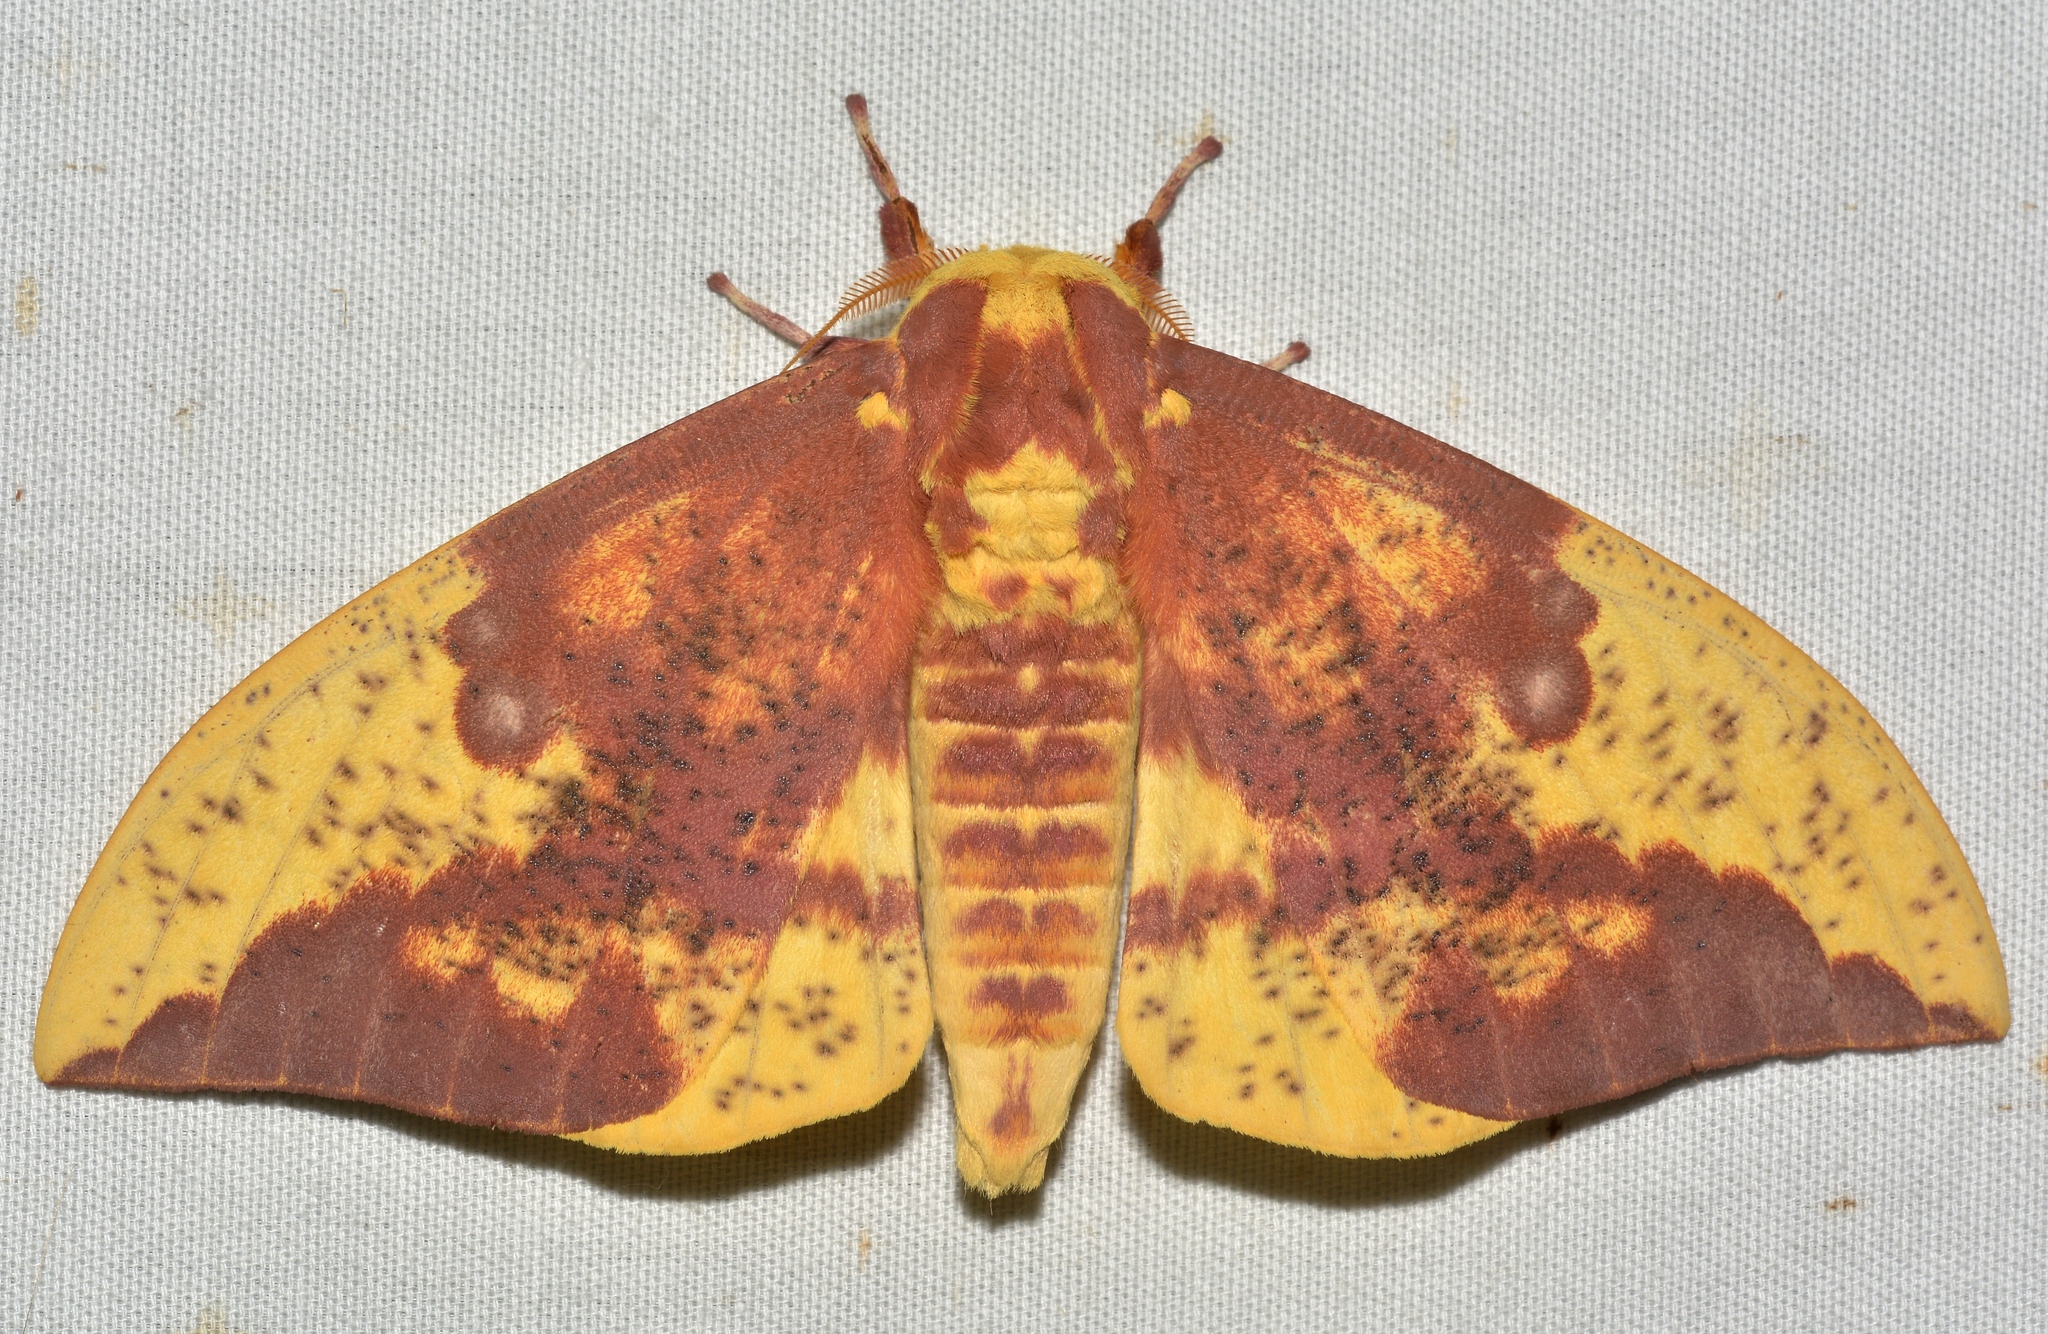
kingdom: Animalia
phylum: Arthropoda
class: Insecta
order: Lepidoptera
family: Saturniidae
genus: Eacles
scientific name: Eacles imperialis
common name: Imperial moth
